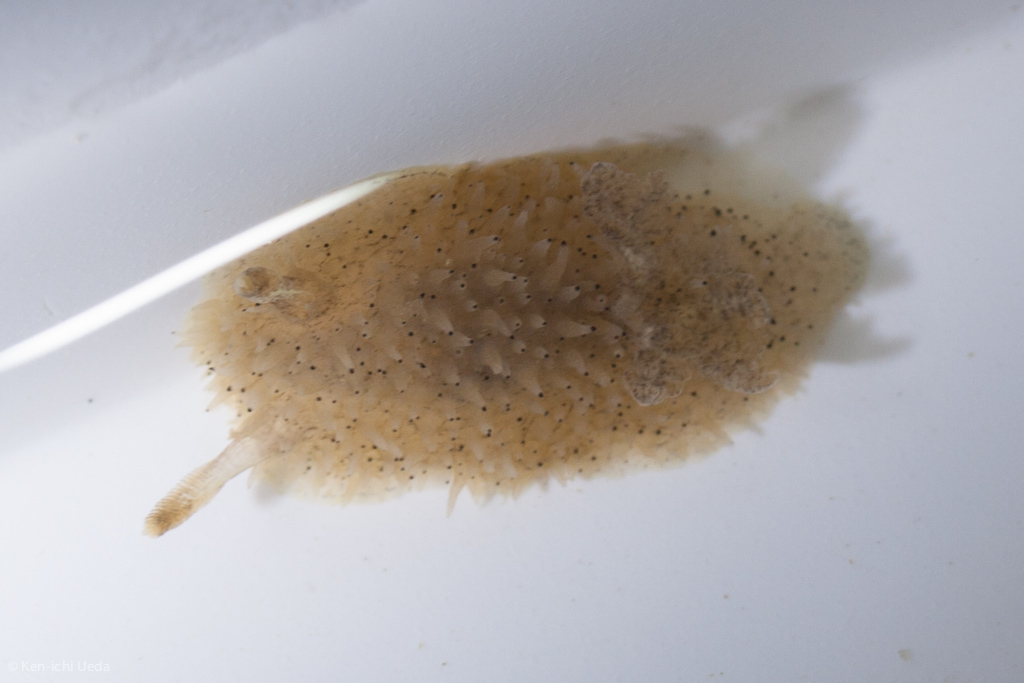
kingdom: Animalia
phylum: Mollusca
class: Gastropoda
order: Nudibranchia
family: Onchidorididae
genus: Acanthodoris
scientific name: Acanthodoris rhodoceras
